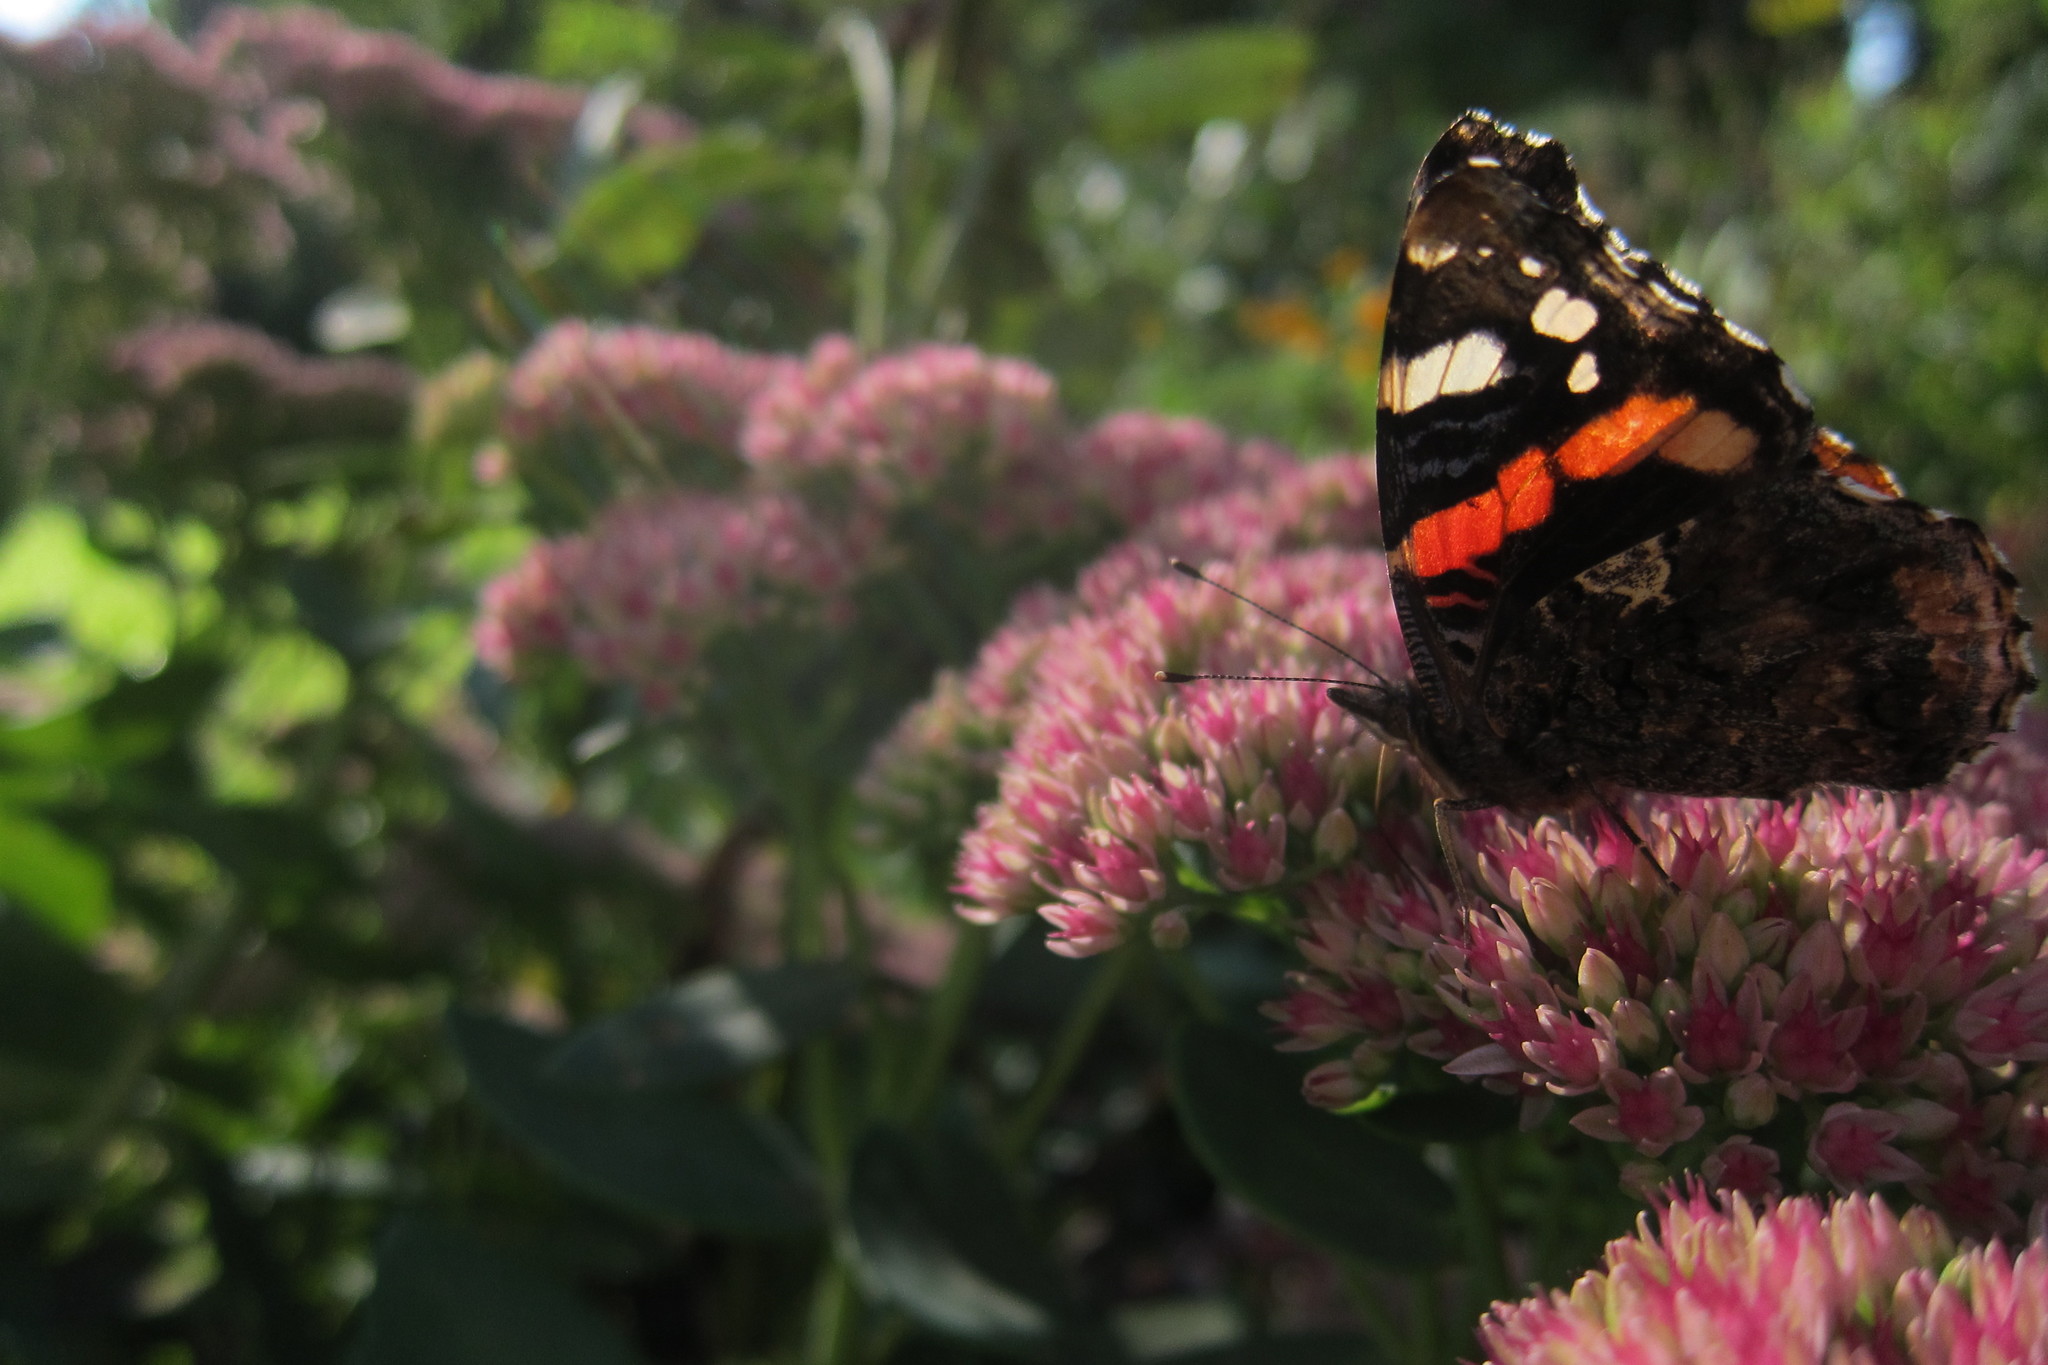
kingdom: Animalia
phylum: Arthropoda
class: Insecta
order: Lepidoptera
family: Nymphalidae
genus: Vanessa
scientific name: Vanessa atalanta
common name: Red admiral
